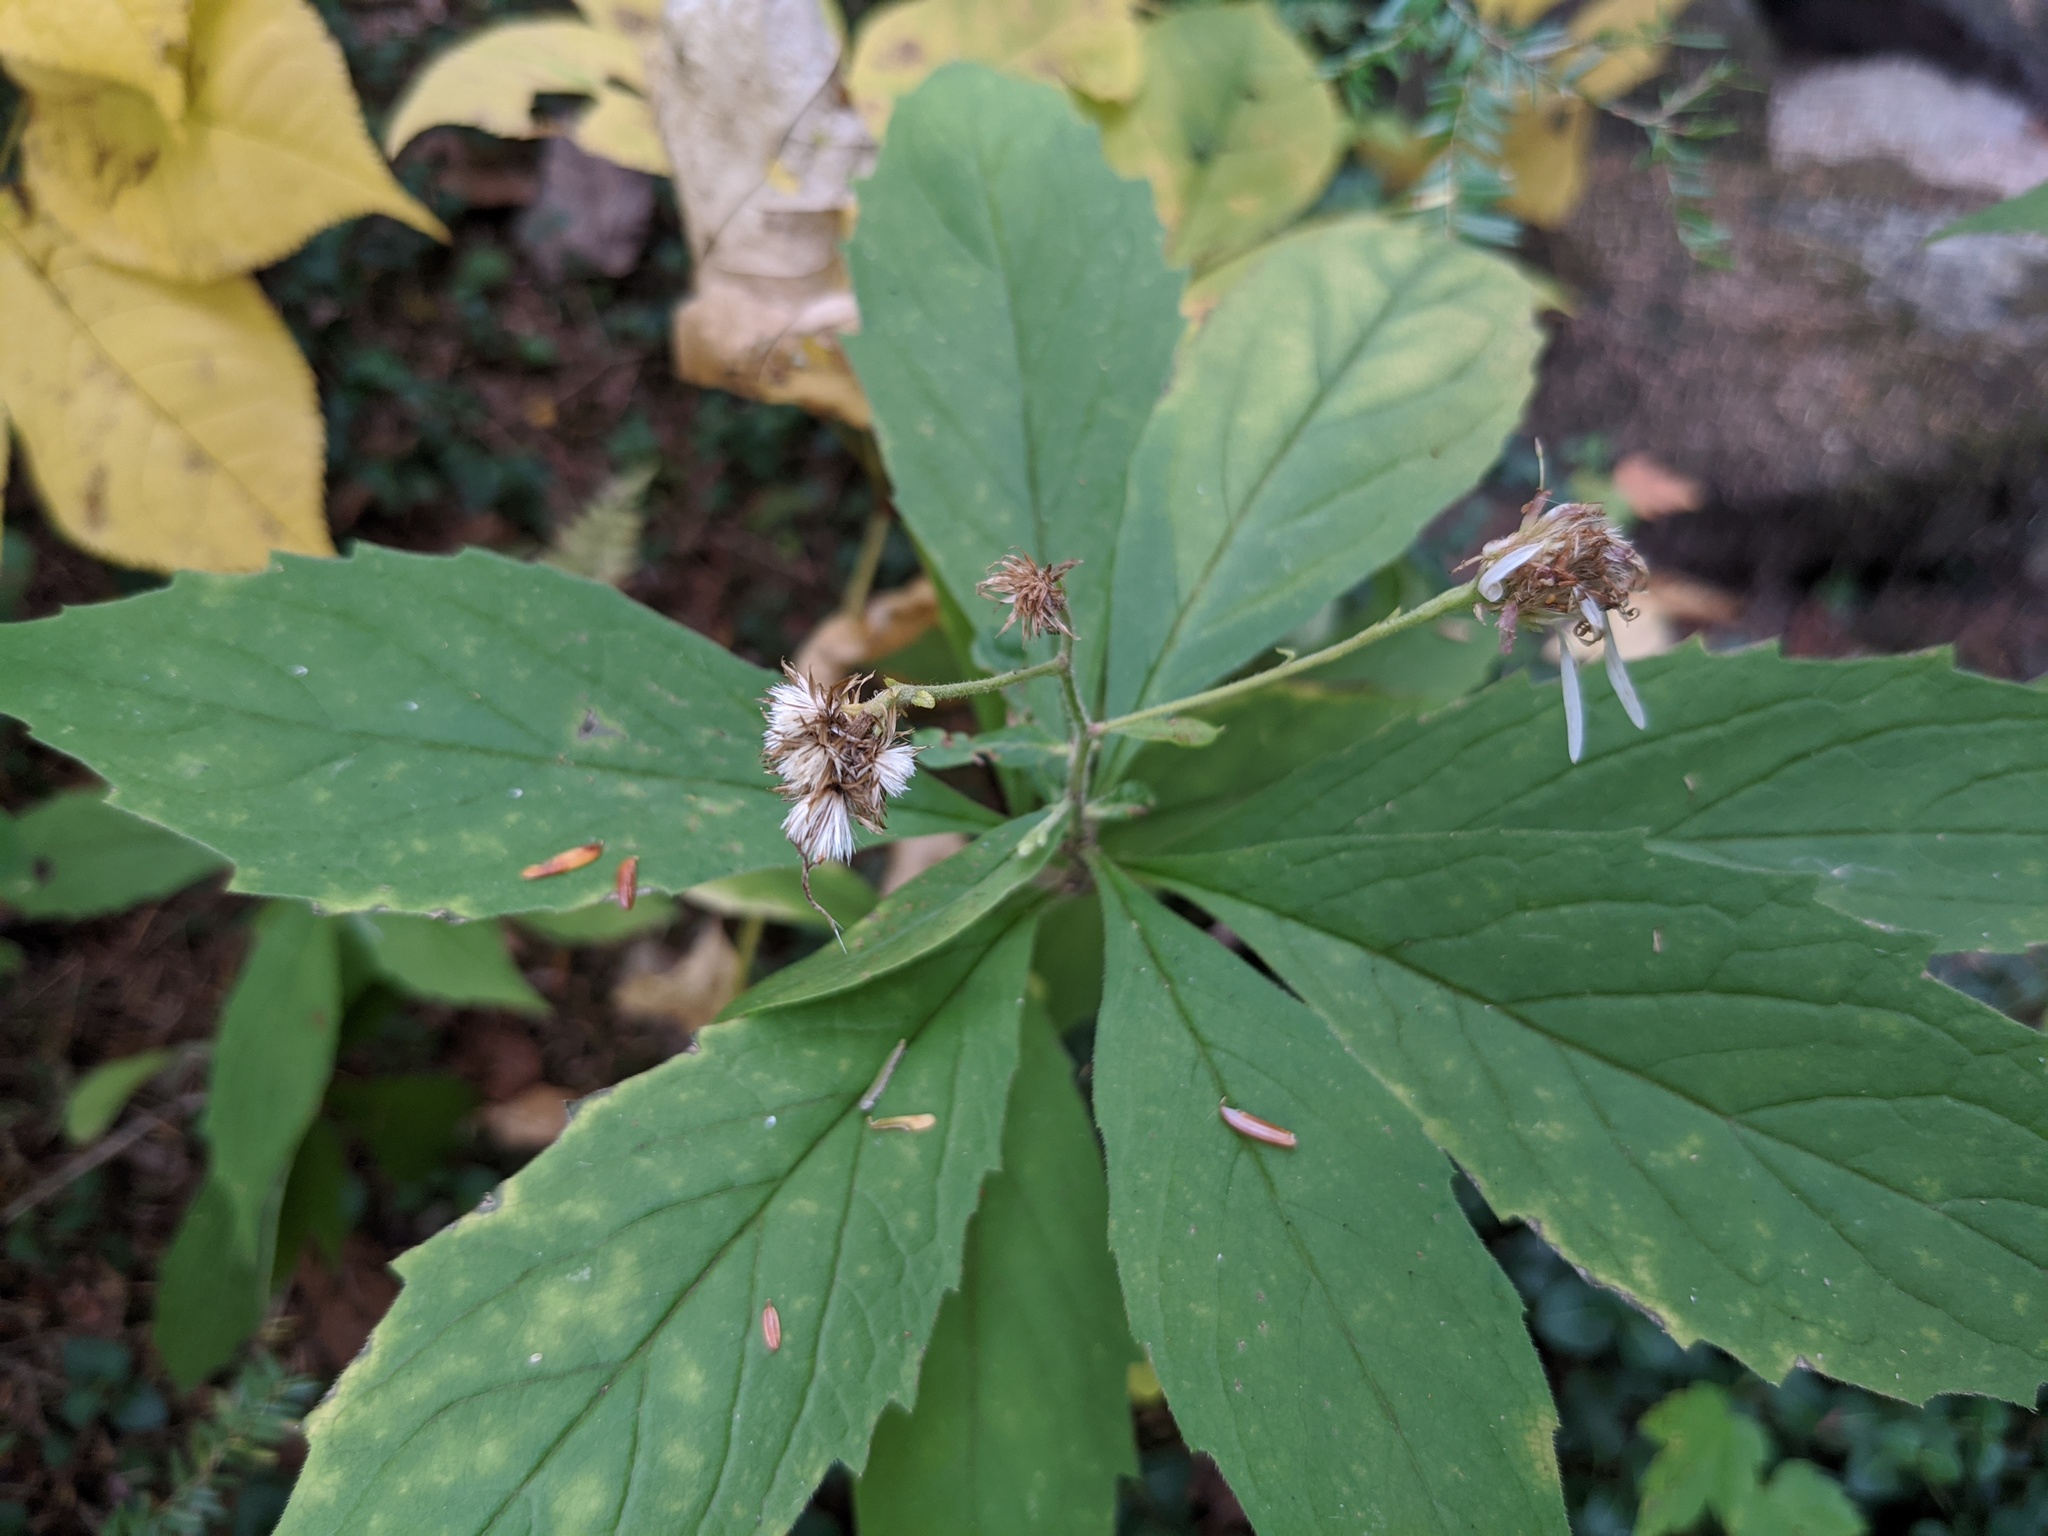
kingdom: Plantae
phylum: Tracheophyta
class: Magnoliopsida
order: Asterales
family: Asteraceae
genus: Oclemena
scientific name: Oclemena acuminata
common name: Mountain aster
